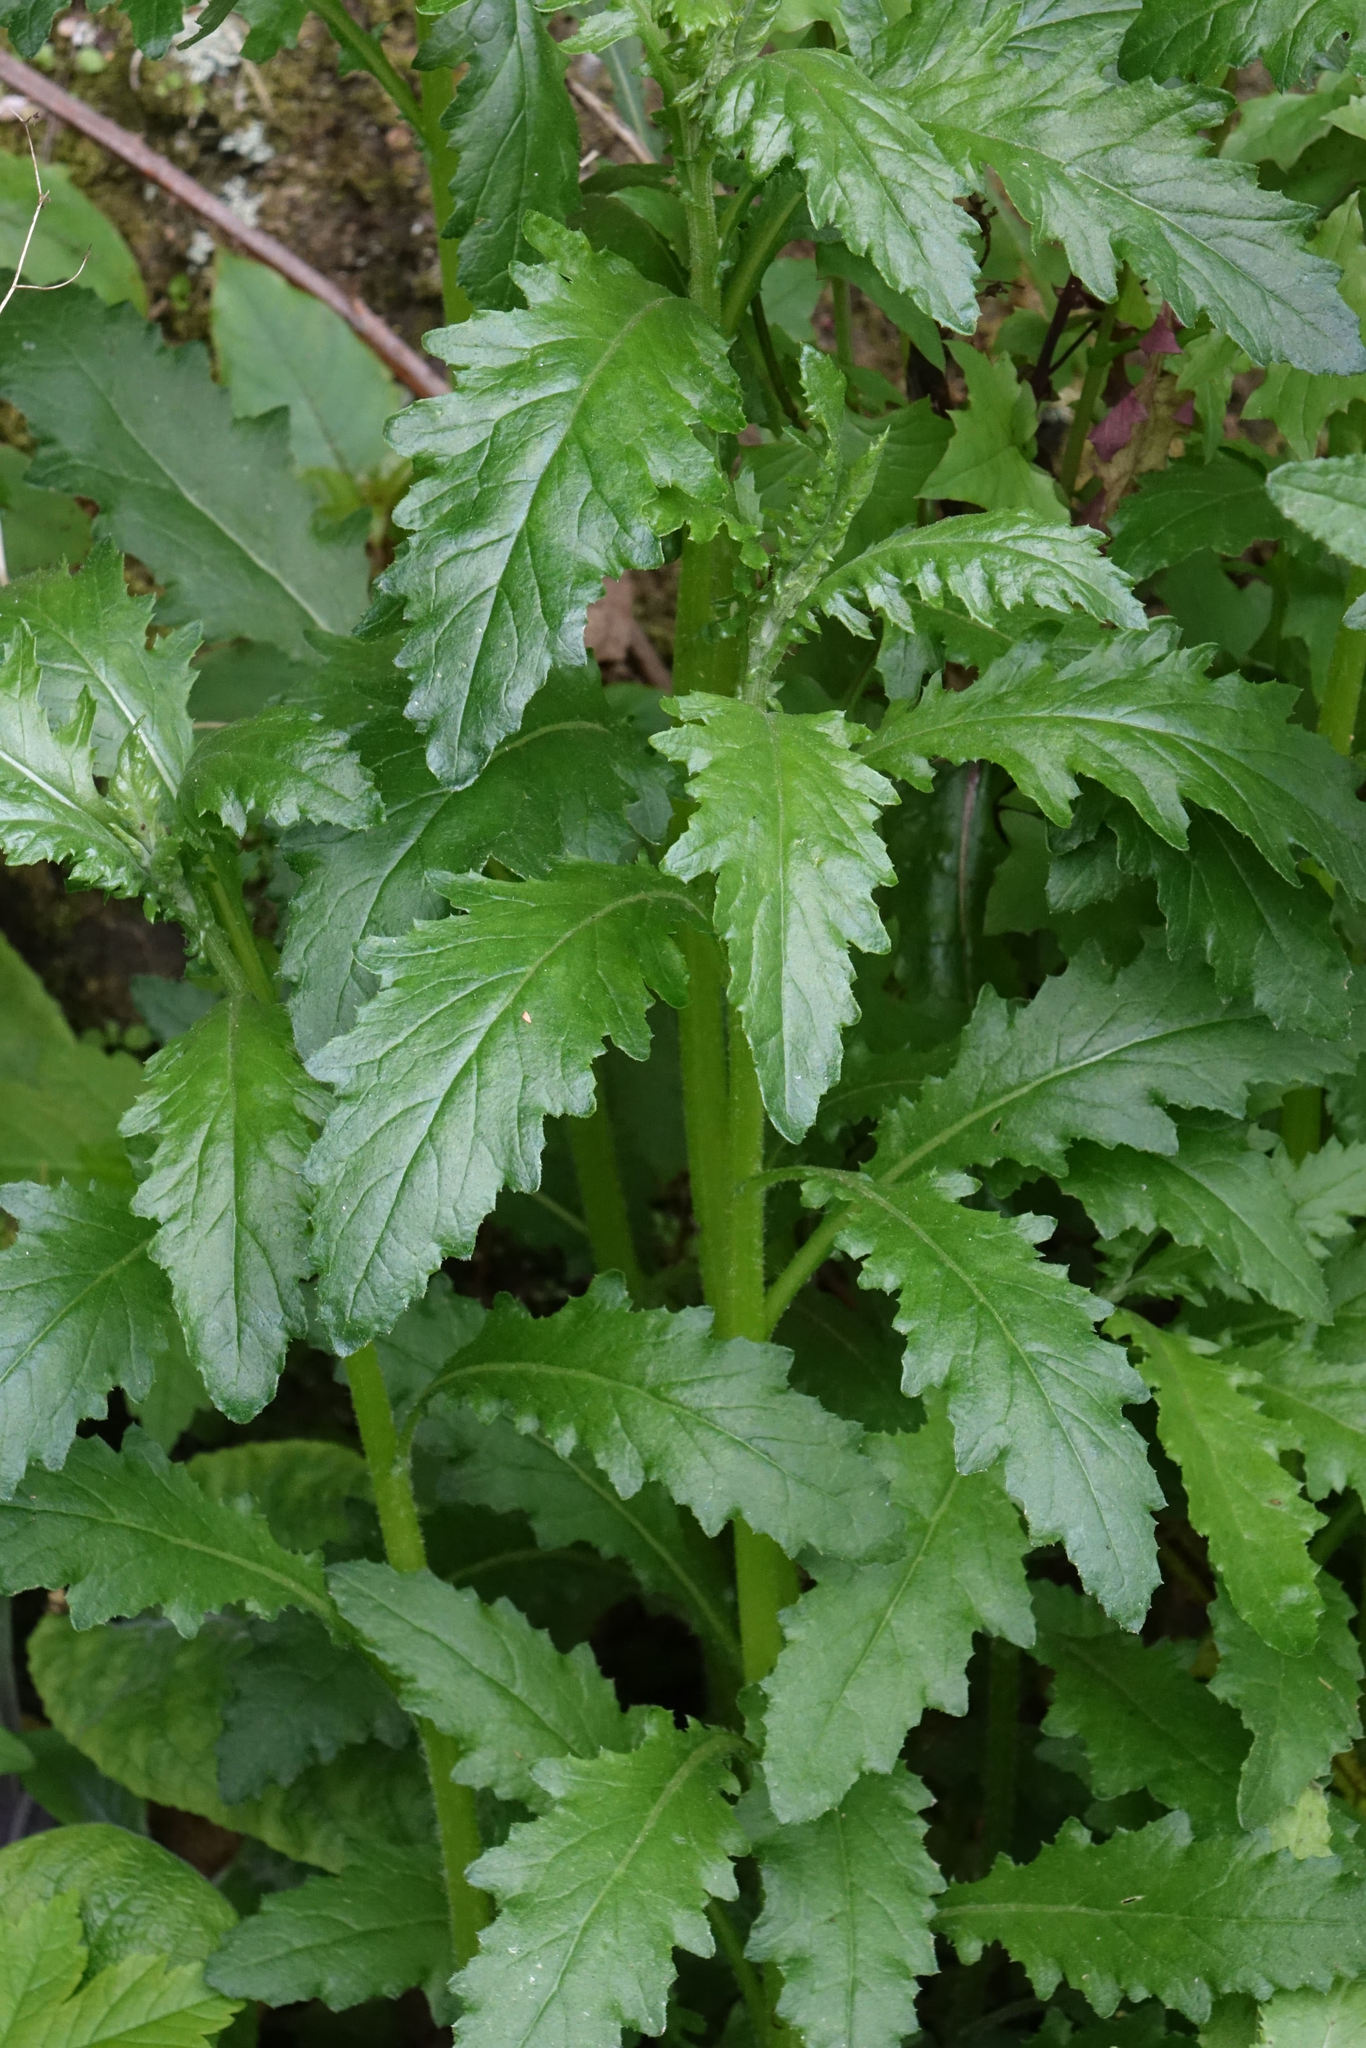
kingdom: Plantae
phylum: Tracheophyta
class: Magnoliopsida
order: Asterales
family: Asteraceae
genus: Senecio
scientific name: Senecio biserratus
